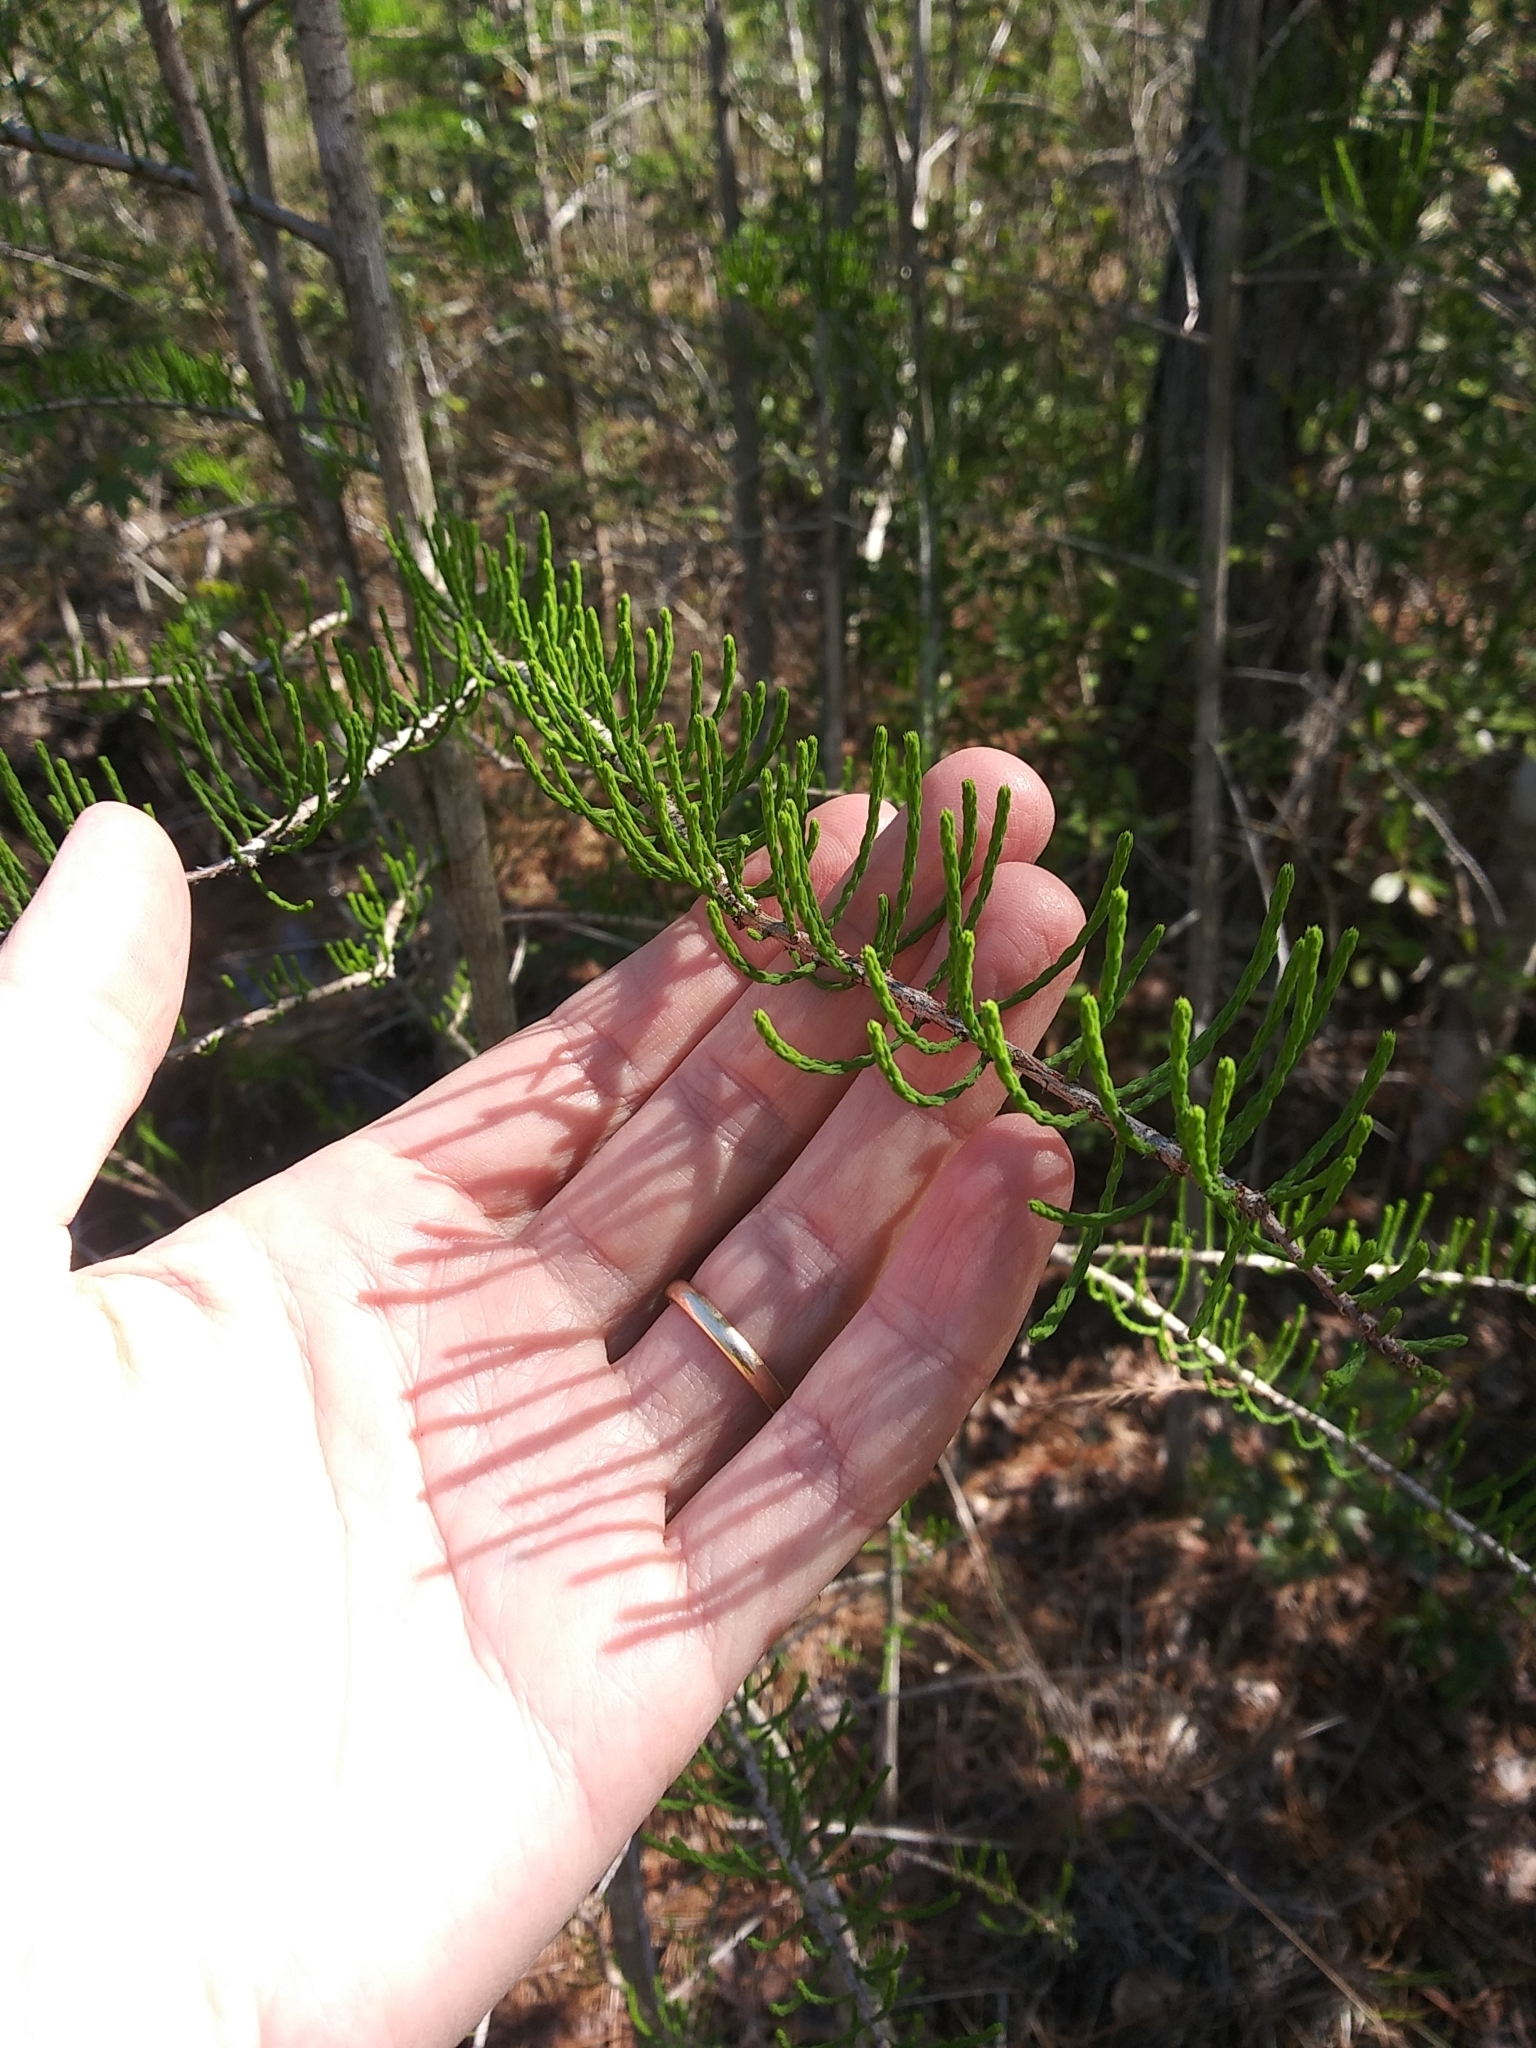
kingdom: Plantae
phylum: Tracheophyta
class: Pinopsida
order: Pinales
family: Cupressaceae
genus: Taxodium
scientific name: Taxodium distichum
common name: Bald cypress
